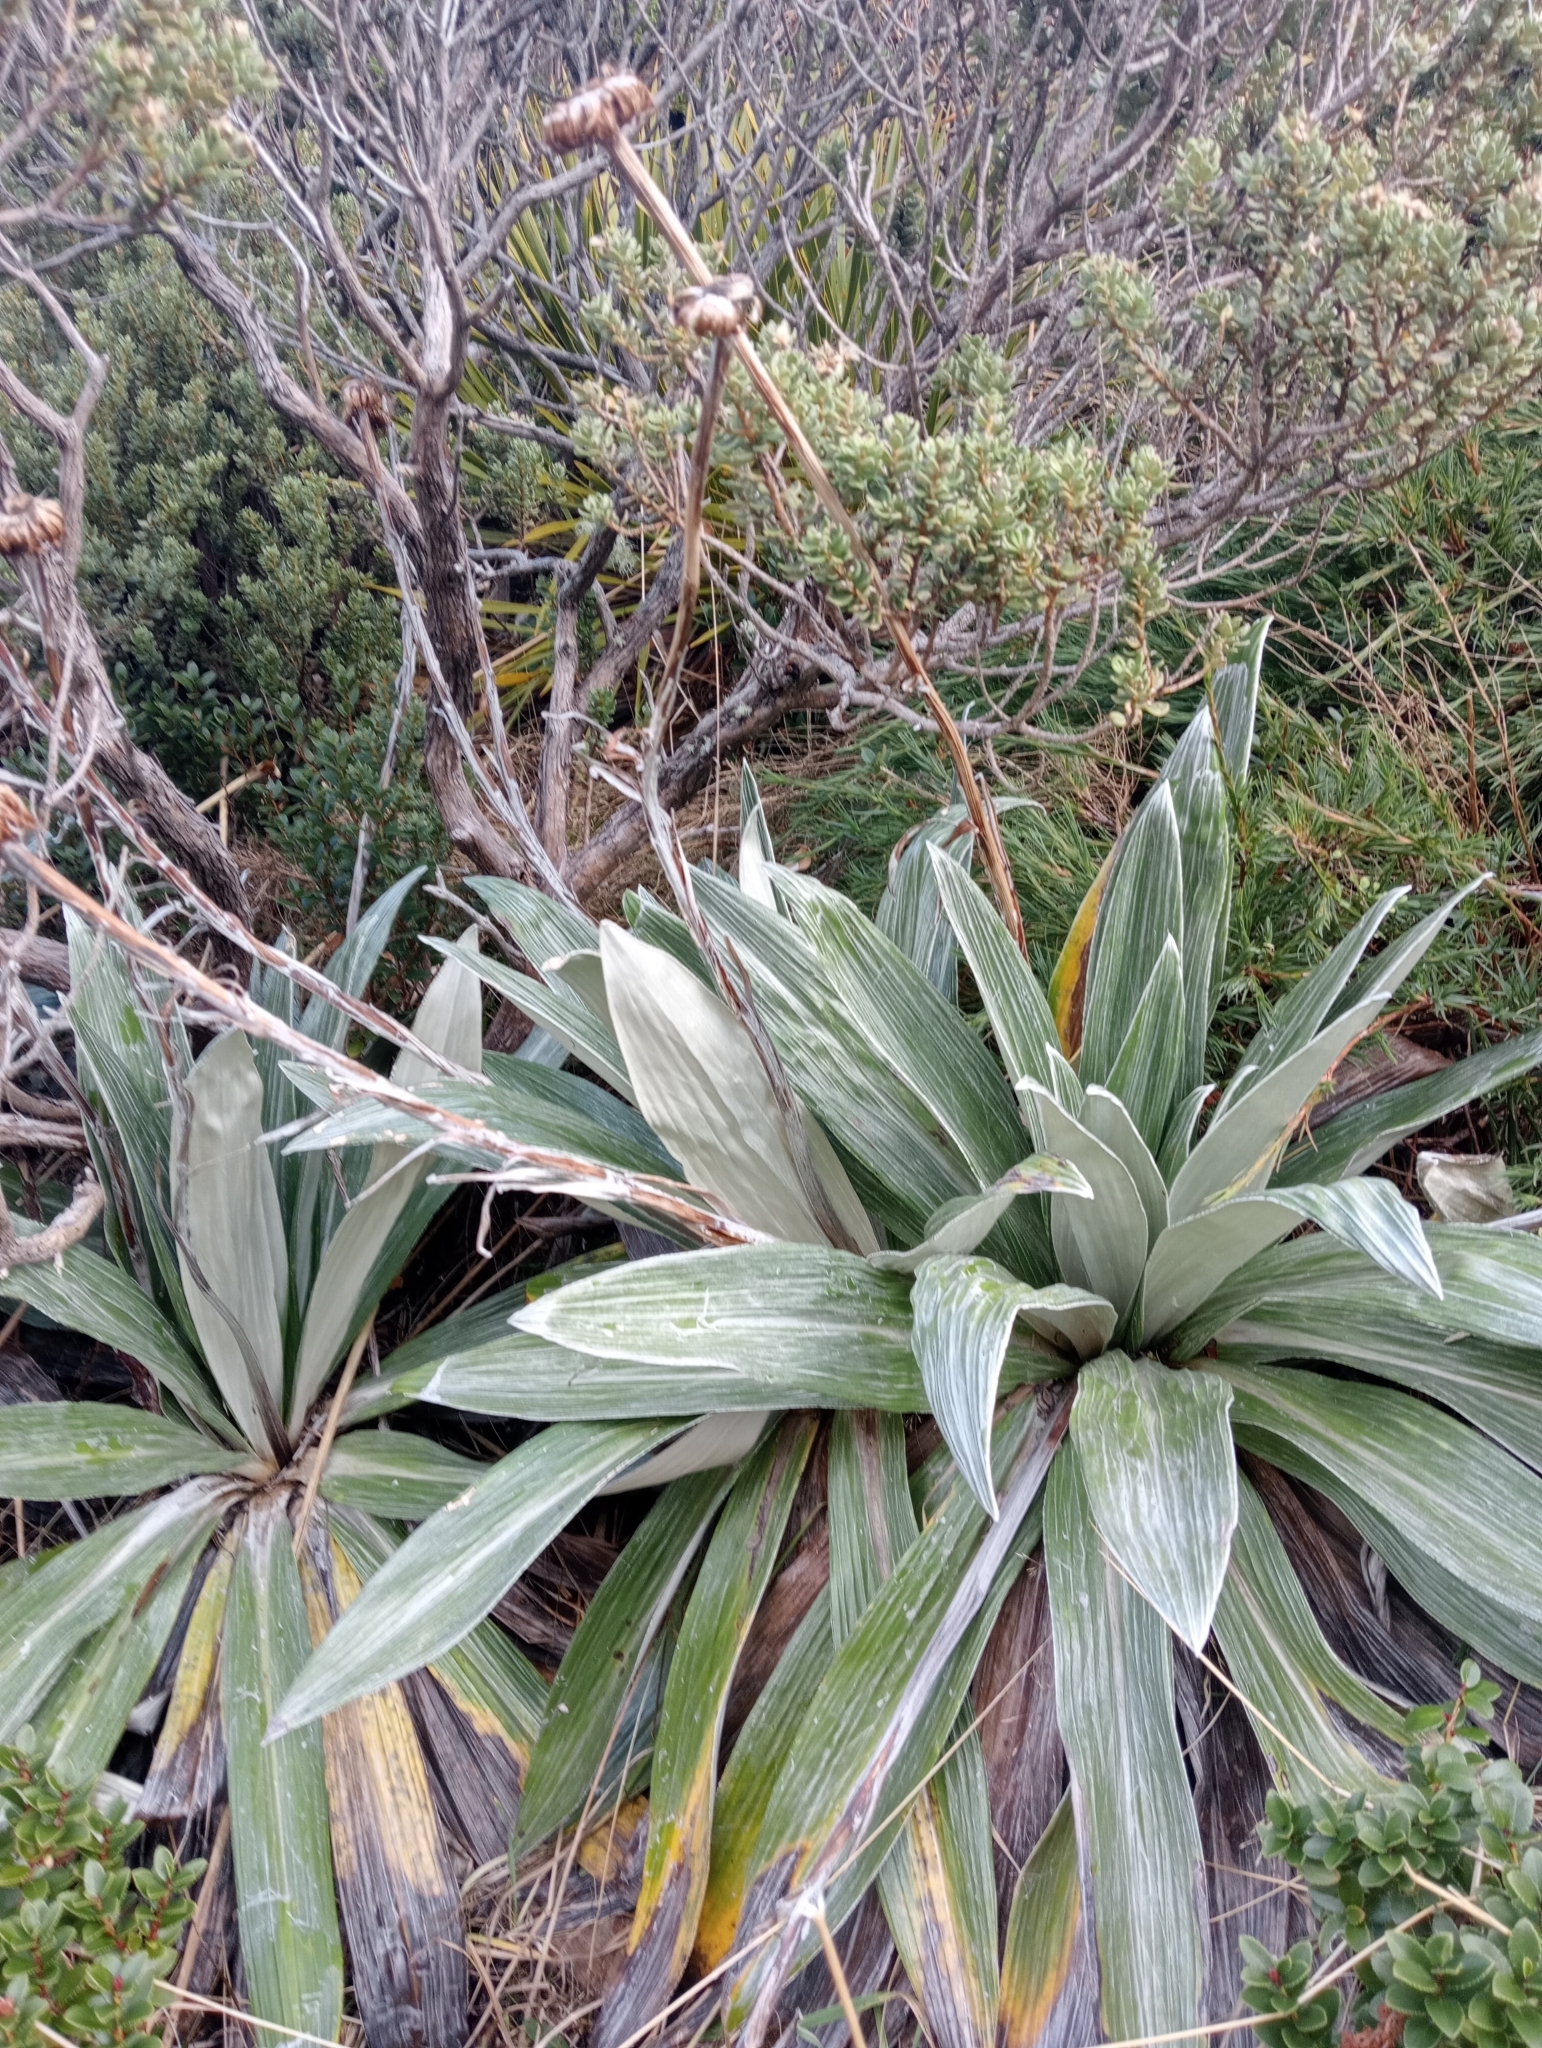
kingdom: Plantae
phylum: Tracheophyta
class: Magnoliopsida
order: Asterales
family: Asteraceae
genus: Celmisia
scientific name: Celmisia semicordata
